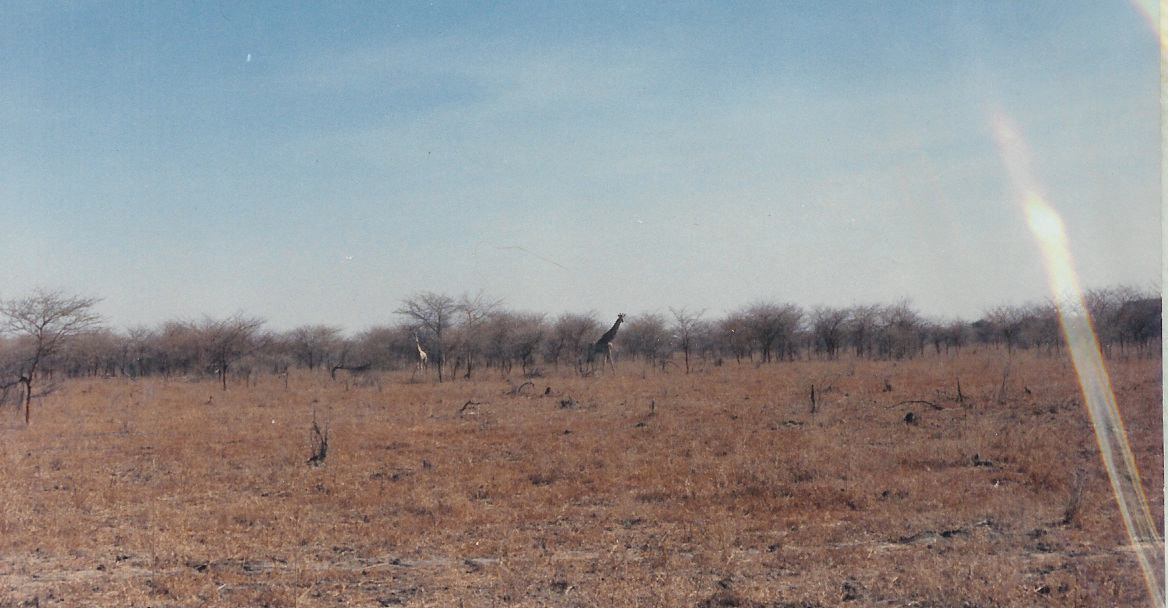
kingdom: Animalia
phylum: Chordata
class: Mammalia
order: Artiodactyla
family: Giraffidae
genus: Giraffa
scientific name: Giraffa camelopardalis
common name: Giraffe
